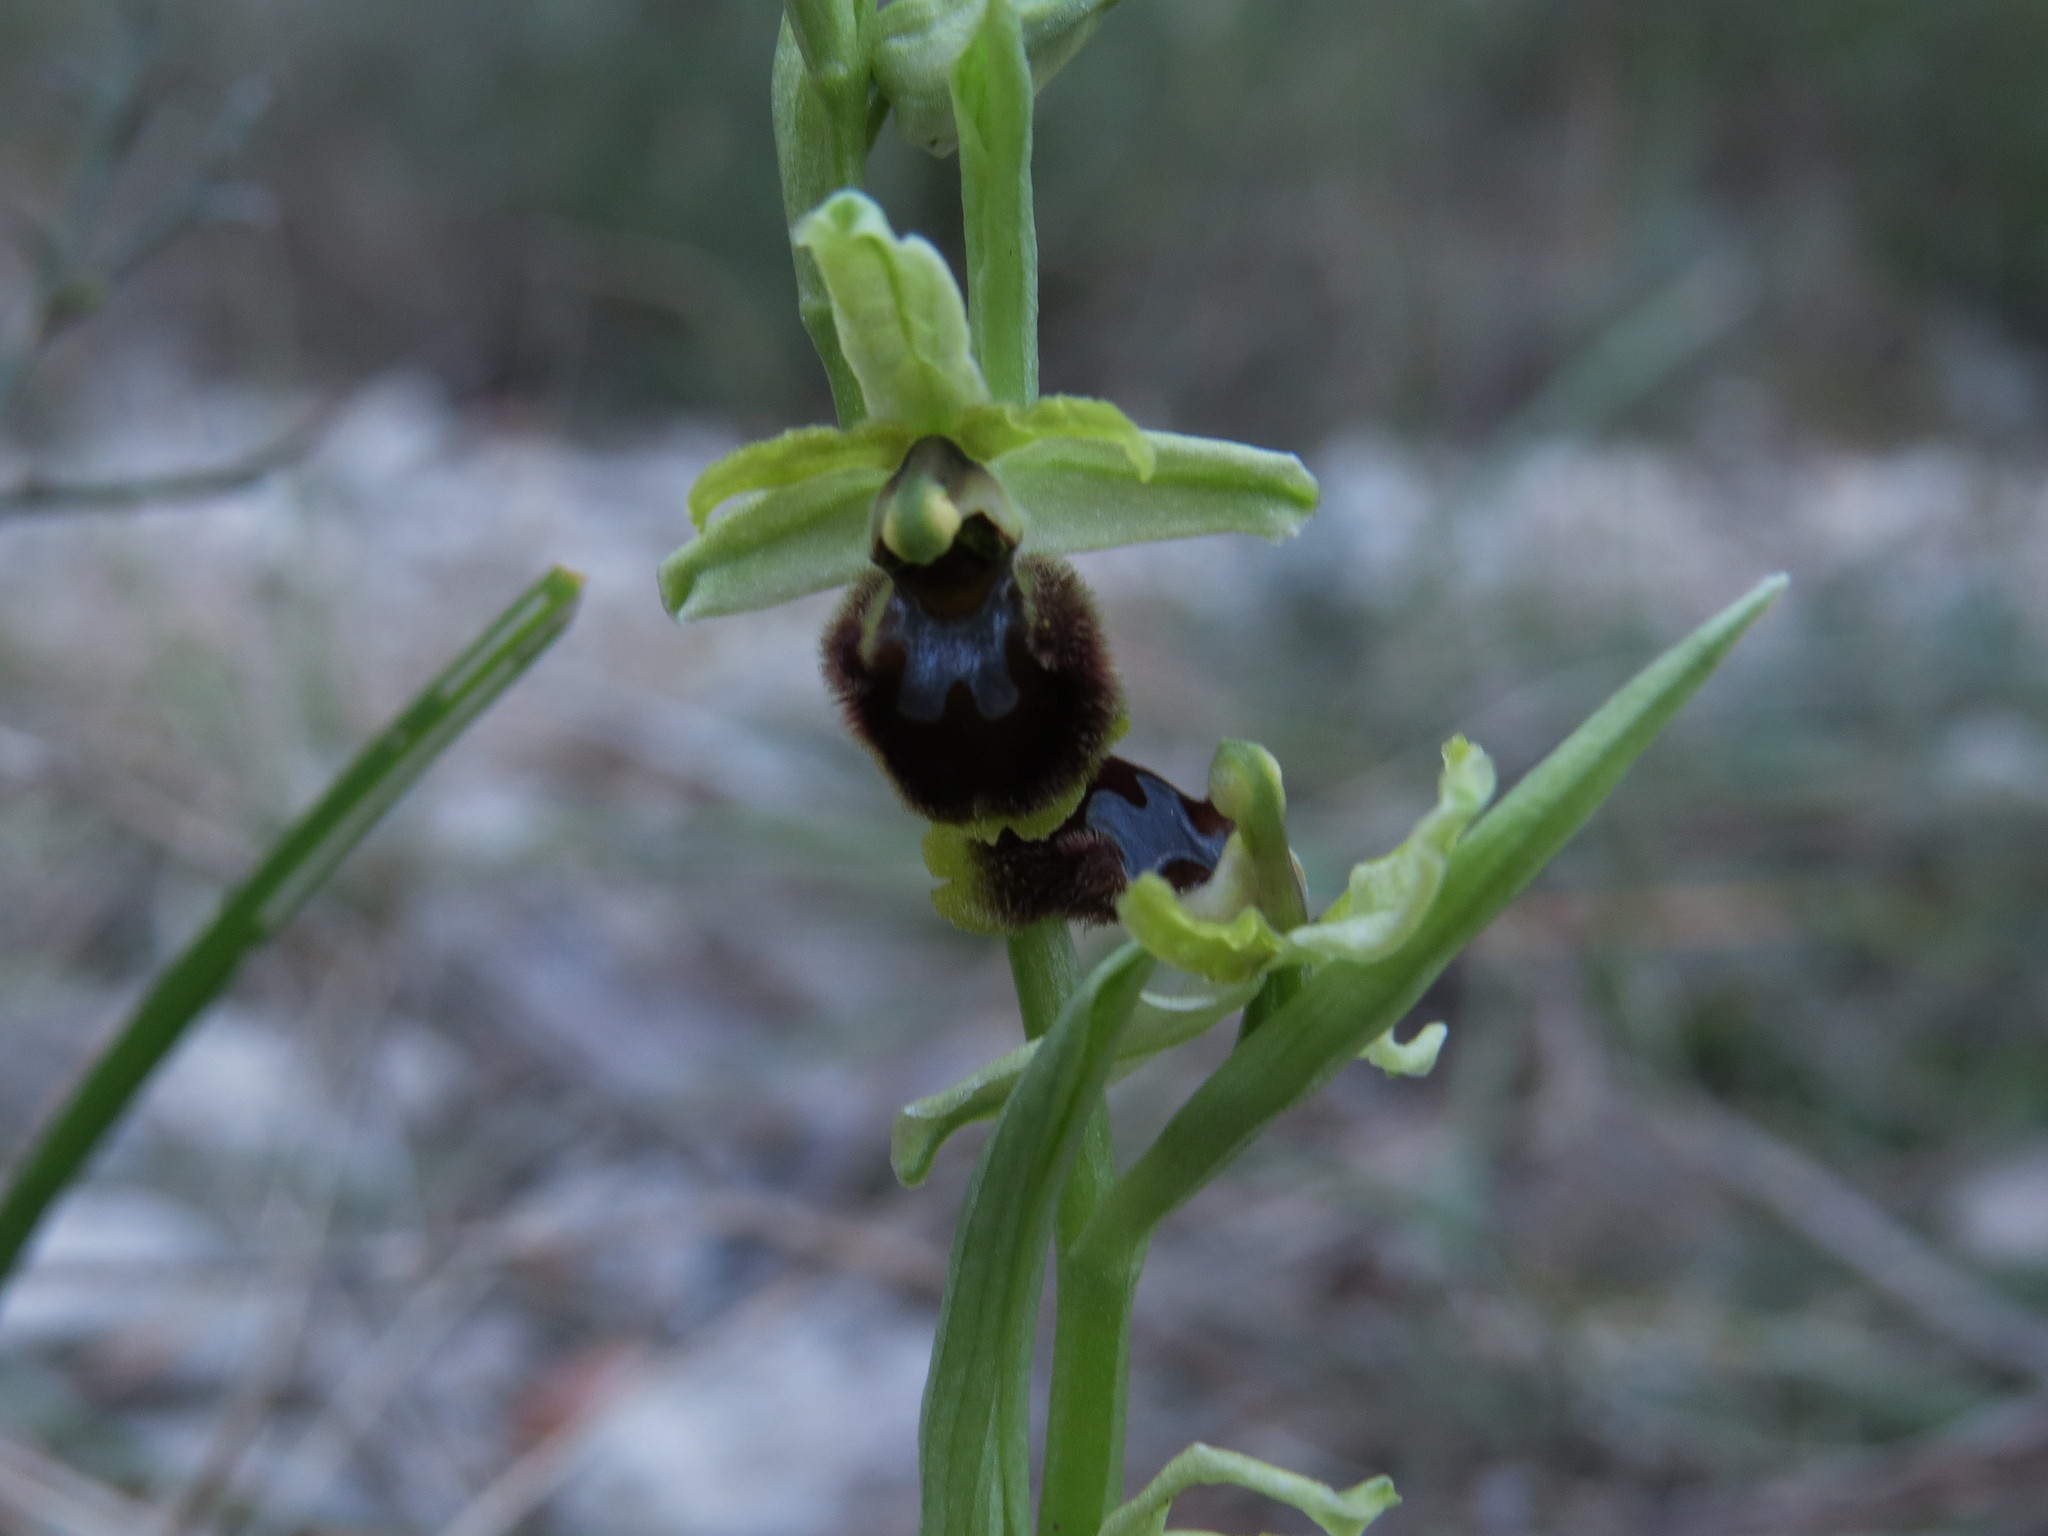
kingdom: Plantae
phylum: Tracheophyta
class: Liliopsida
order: Asparagales
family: Orchidaceae
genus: Ophrys
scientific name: Ophrys sphegodes
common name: Early spider-orchid
